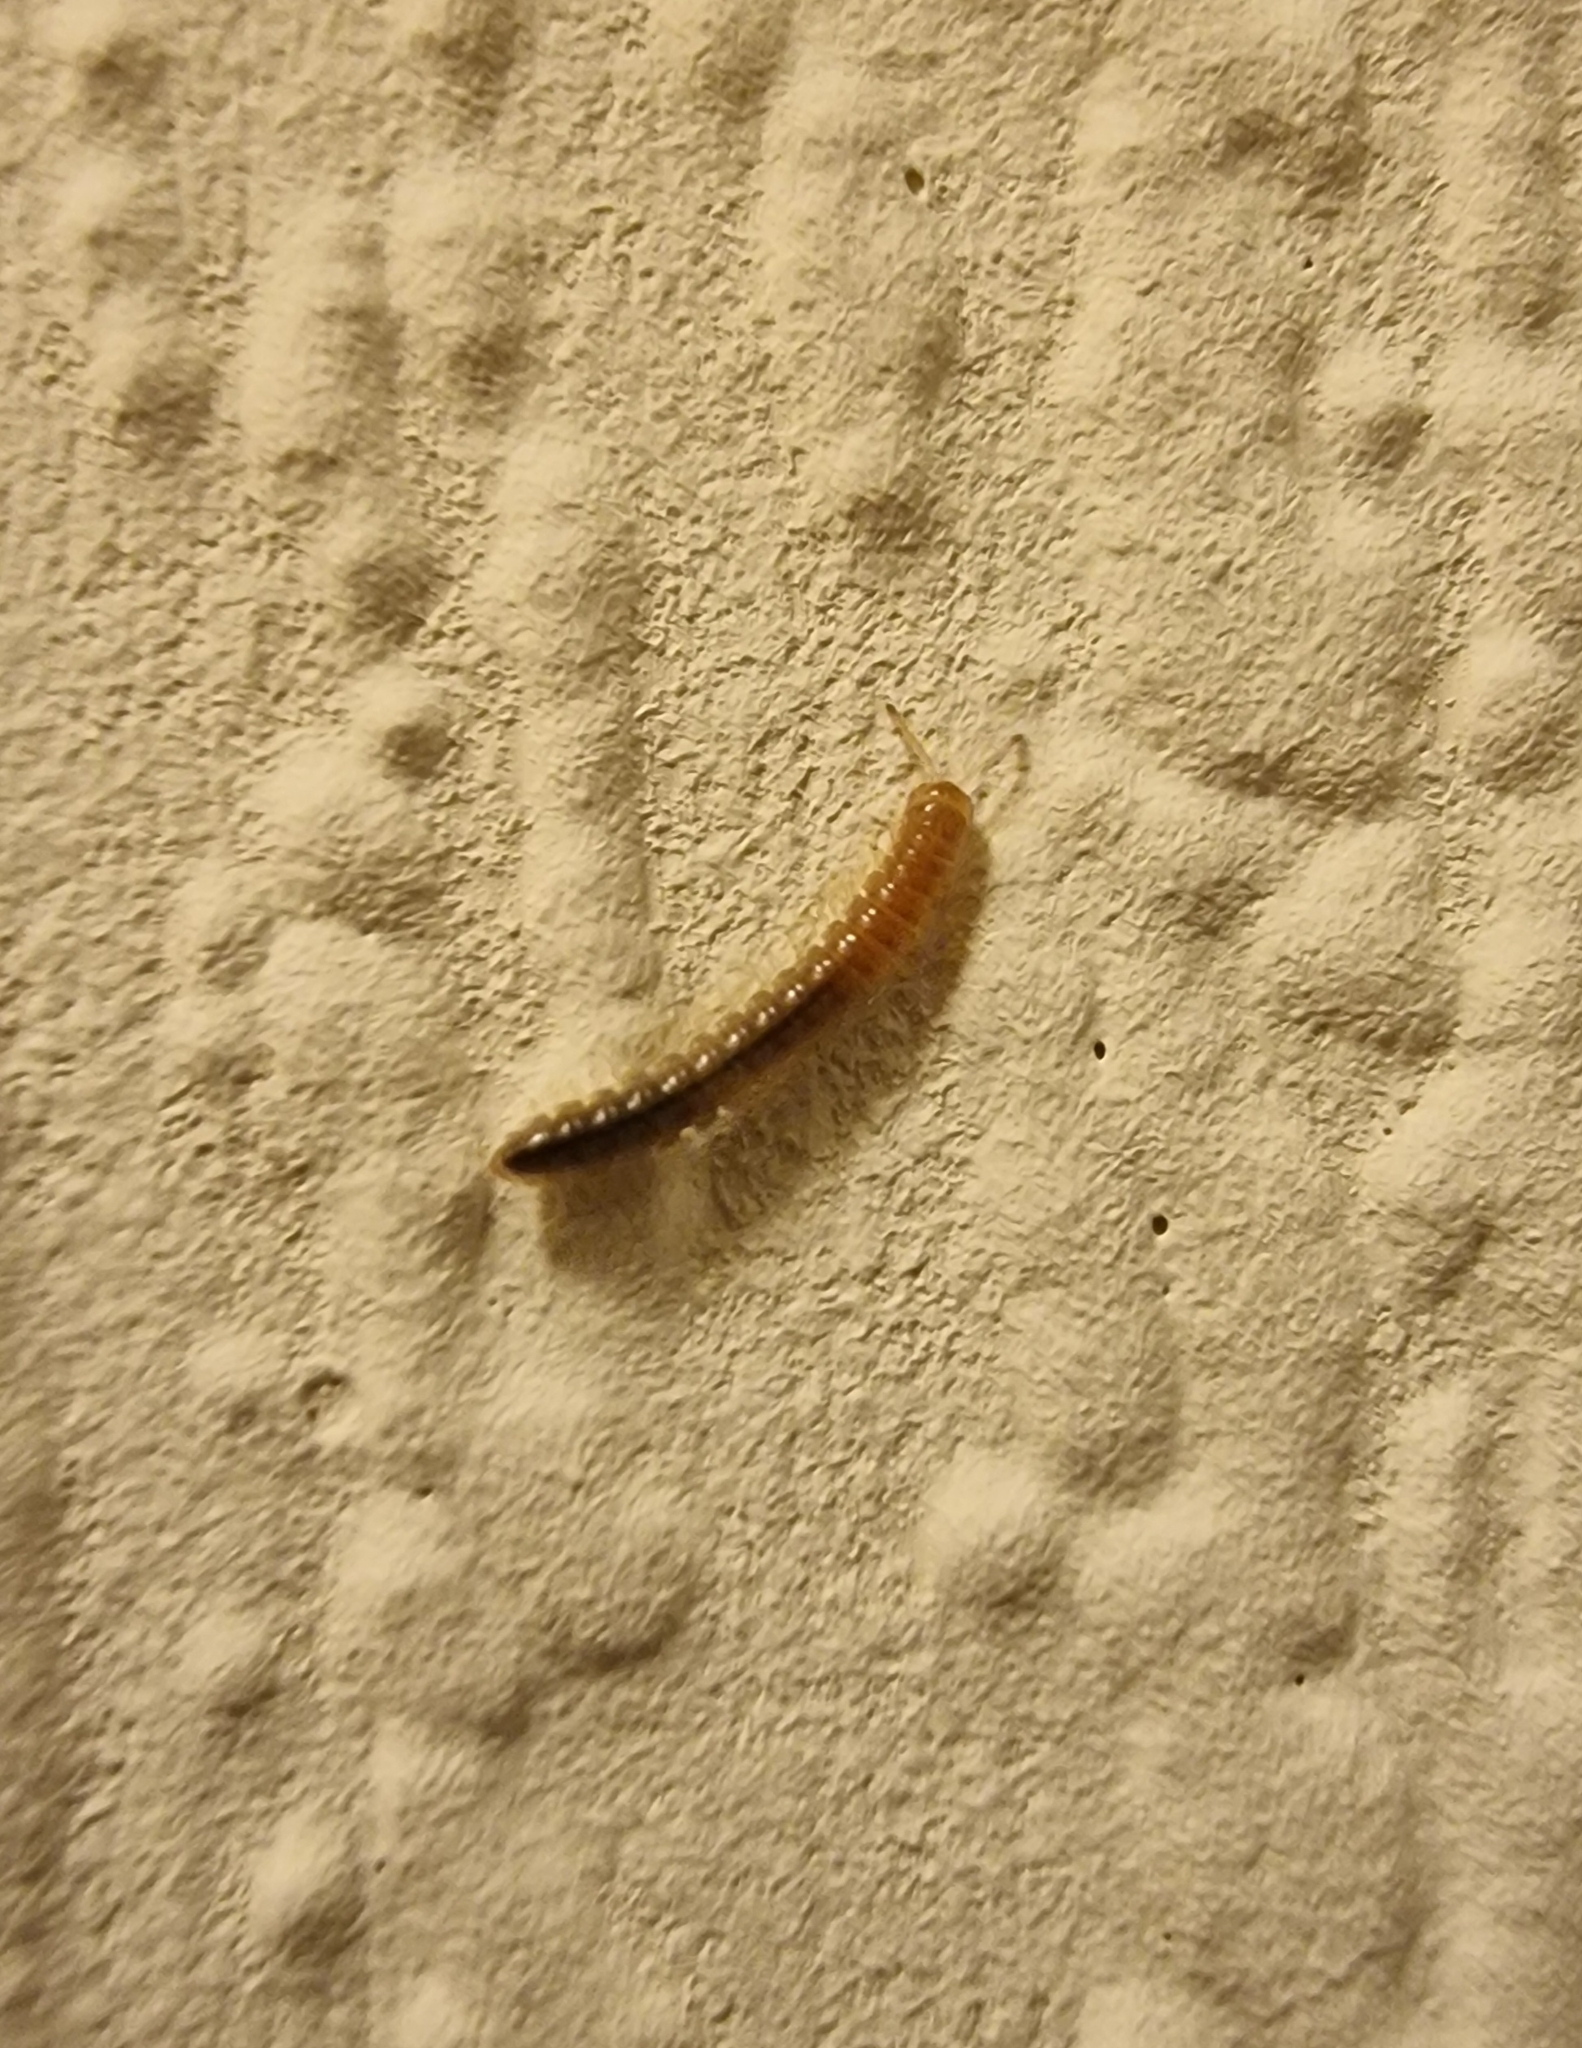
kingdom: Animalia
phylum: Arthropoda
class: Diplopoda
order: Polydesmida
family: Paradoxosomatidae
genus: Oxidus
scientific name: Oxidus gracilis
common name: Greenhouse millipede
